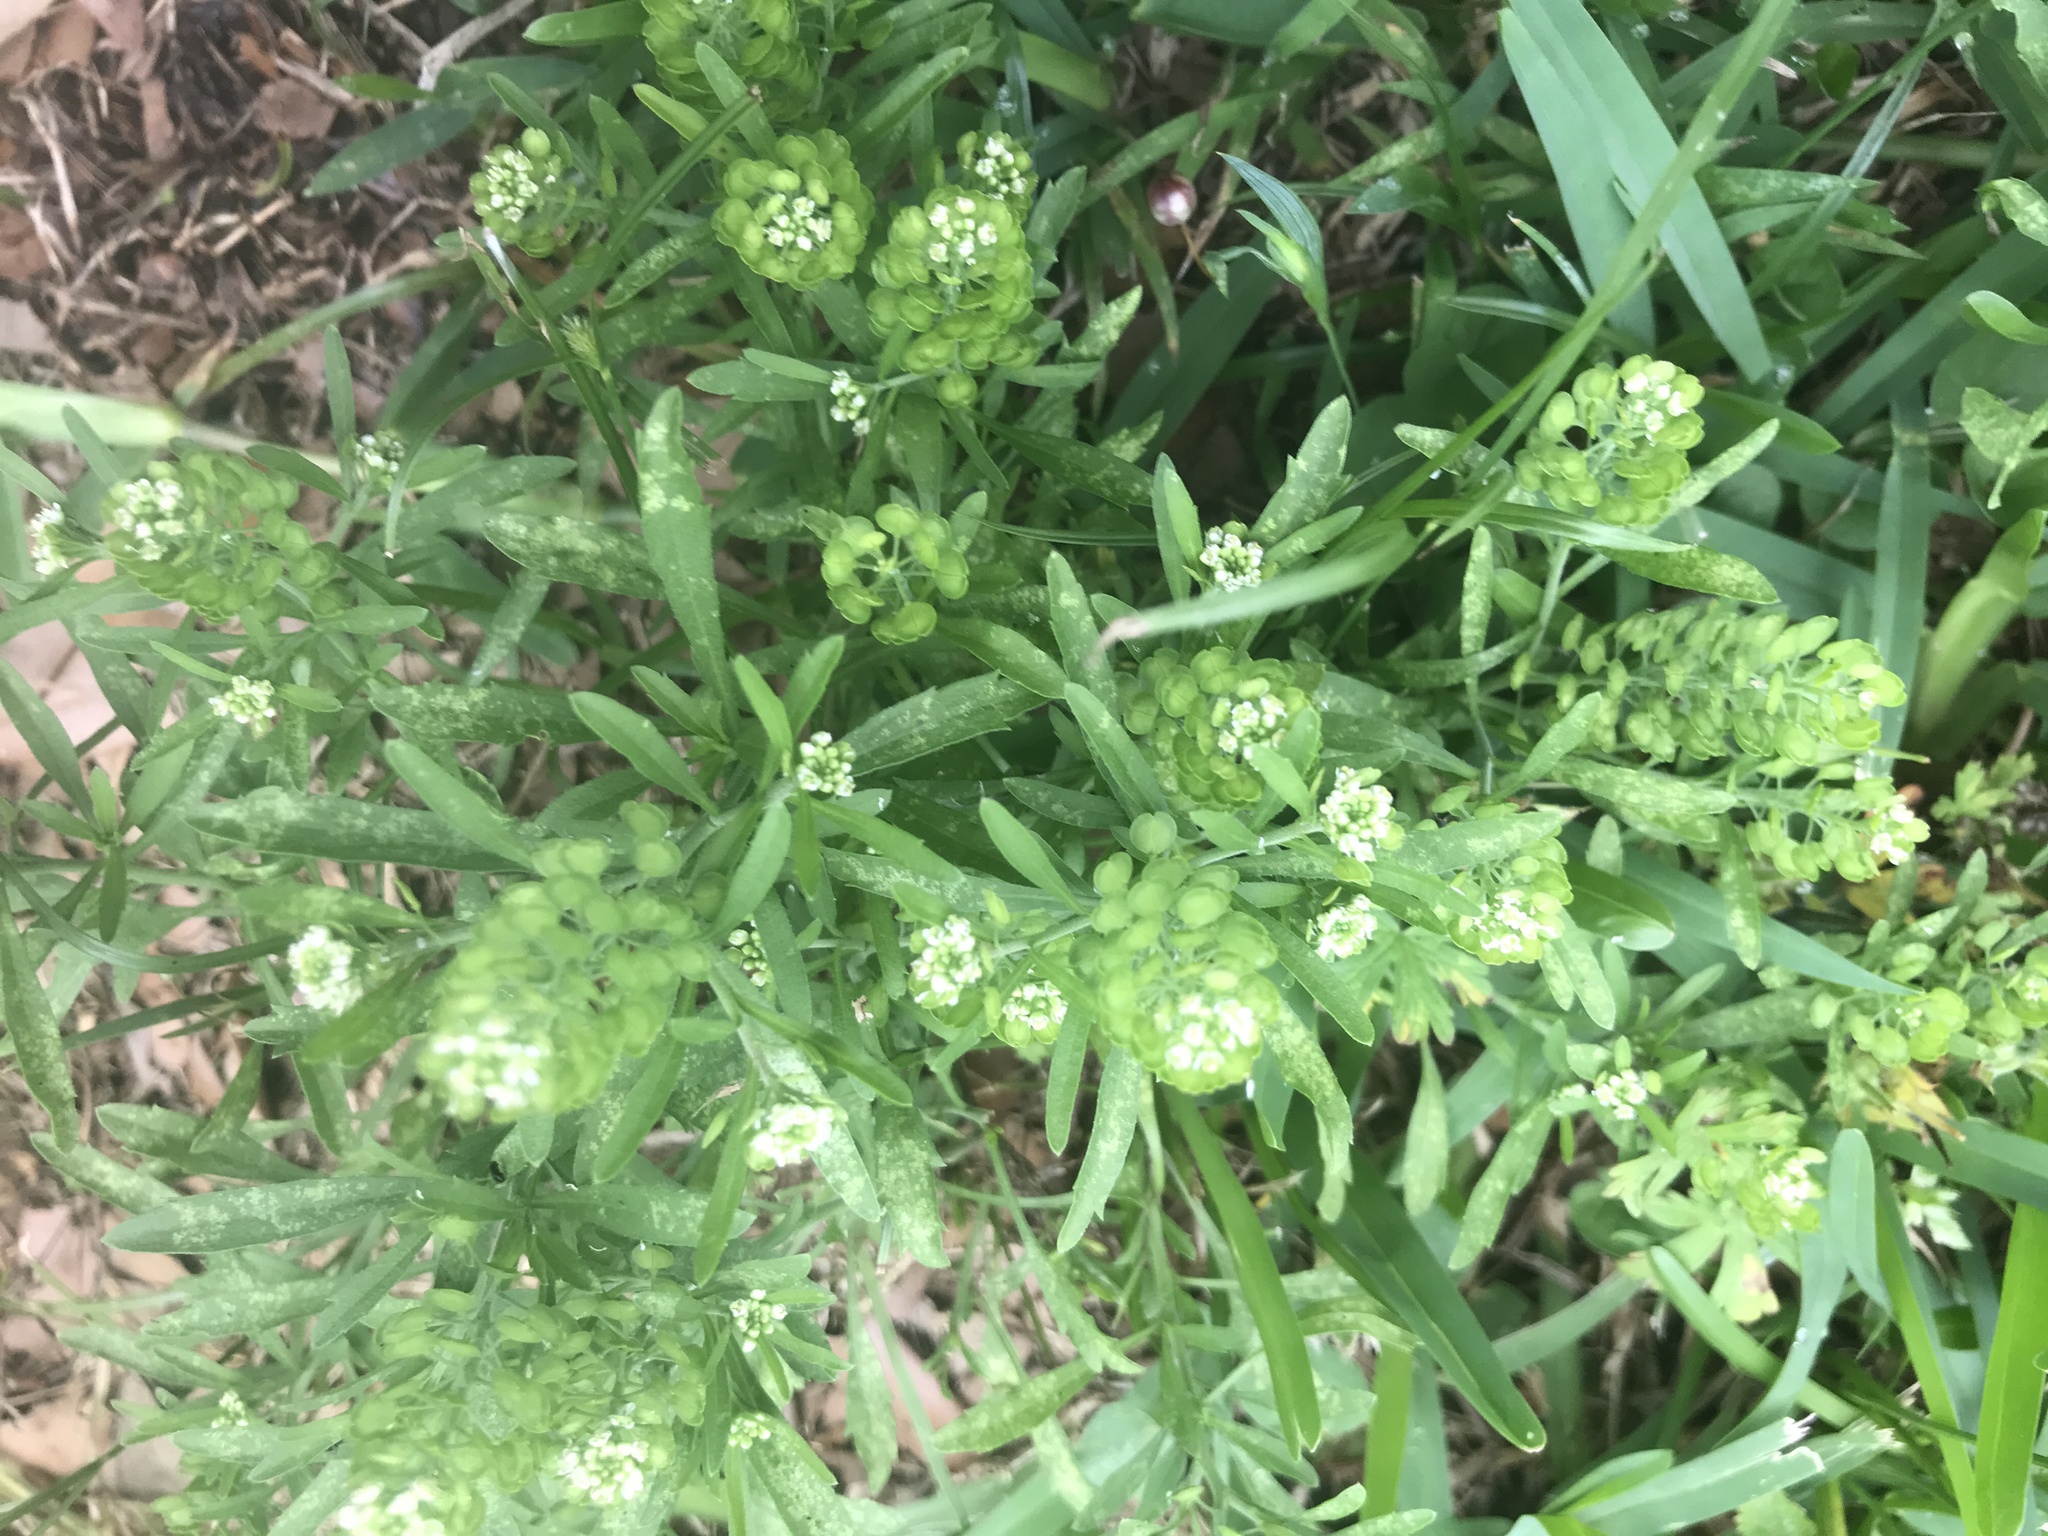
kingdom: Plantae
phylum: Tracheophyta
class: Magnoliopsida
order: Brassicales
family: Brassicaceae
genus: Lepidium
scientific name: Lepidium virginicum
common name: Least pepperwort
